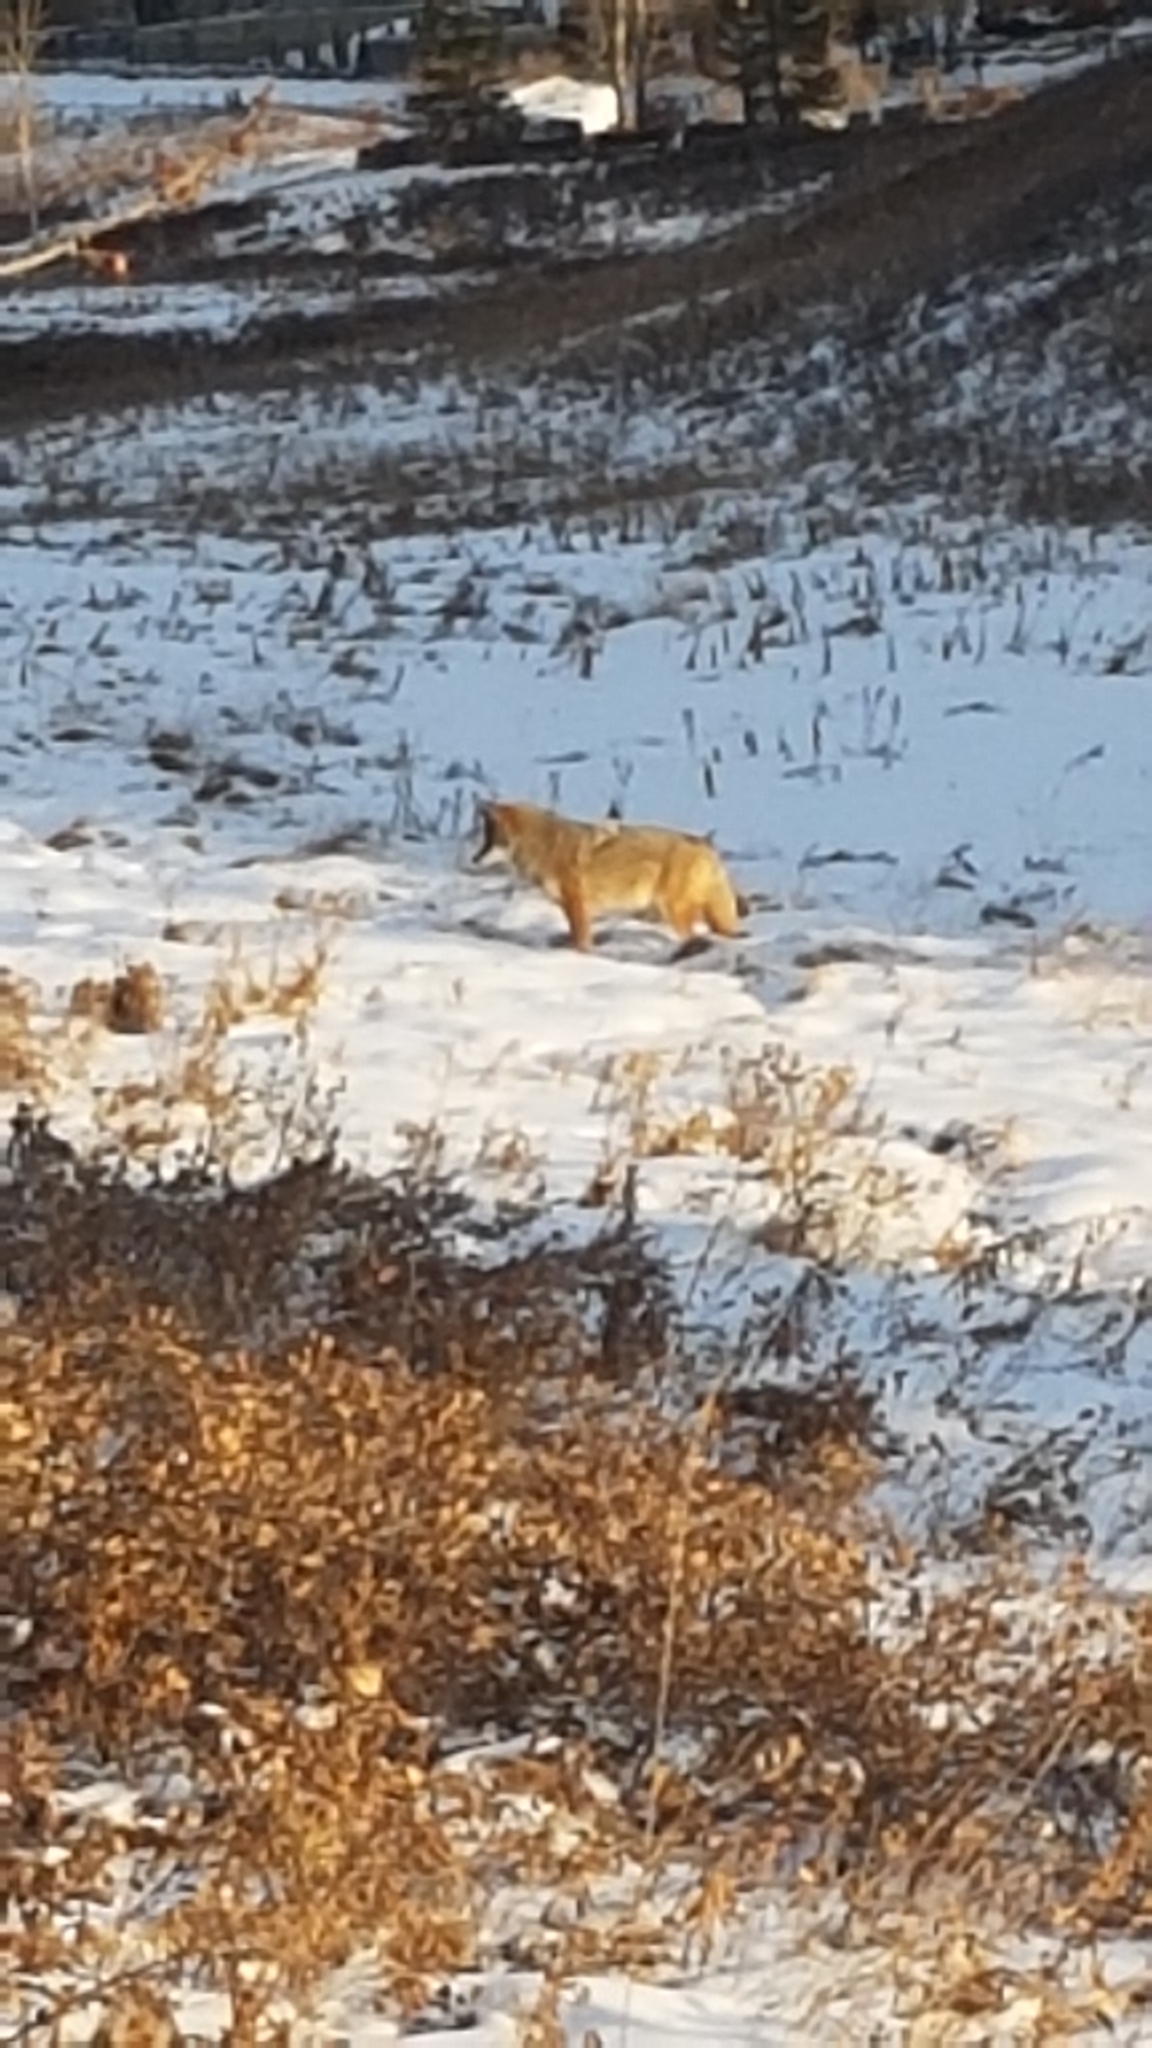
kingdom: Animalia
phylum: Chordata
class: Mammalia
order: Carnivora
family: Canidae
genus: Canis
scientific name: Canis latrans
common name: Coyote
